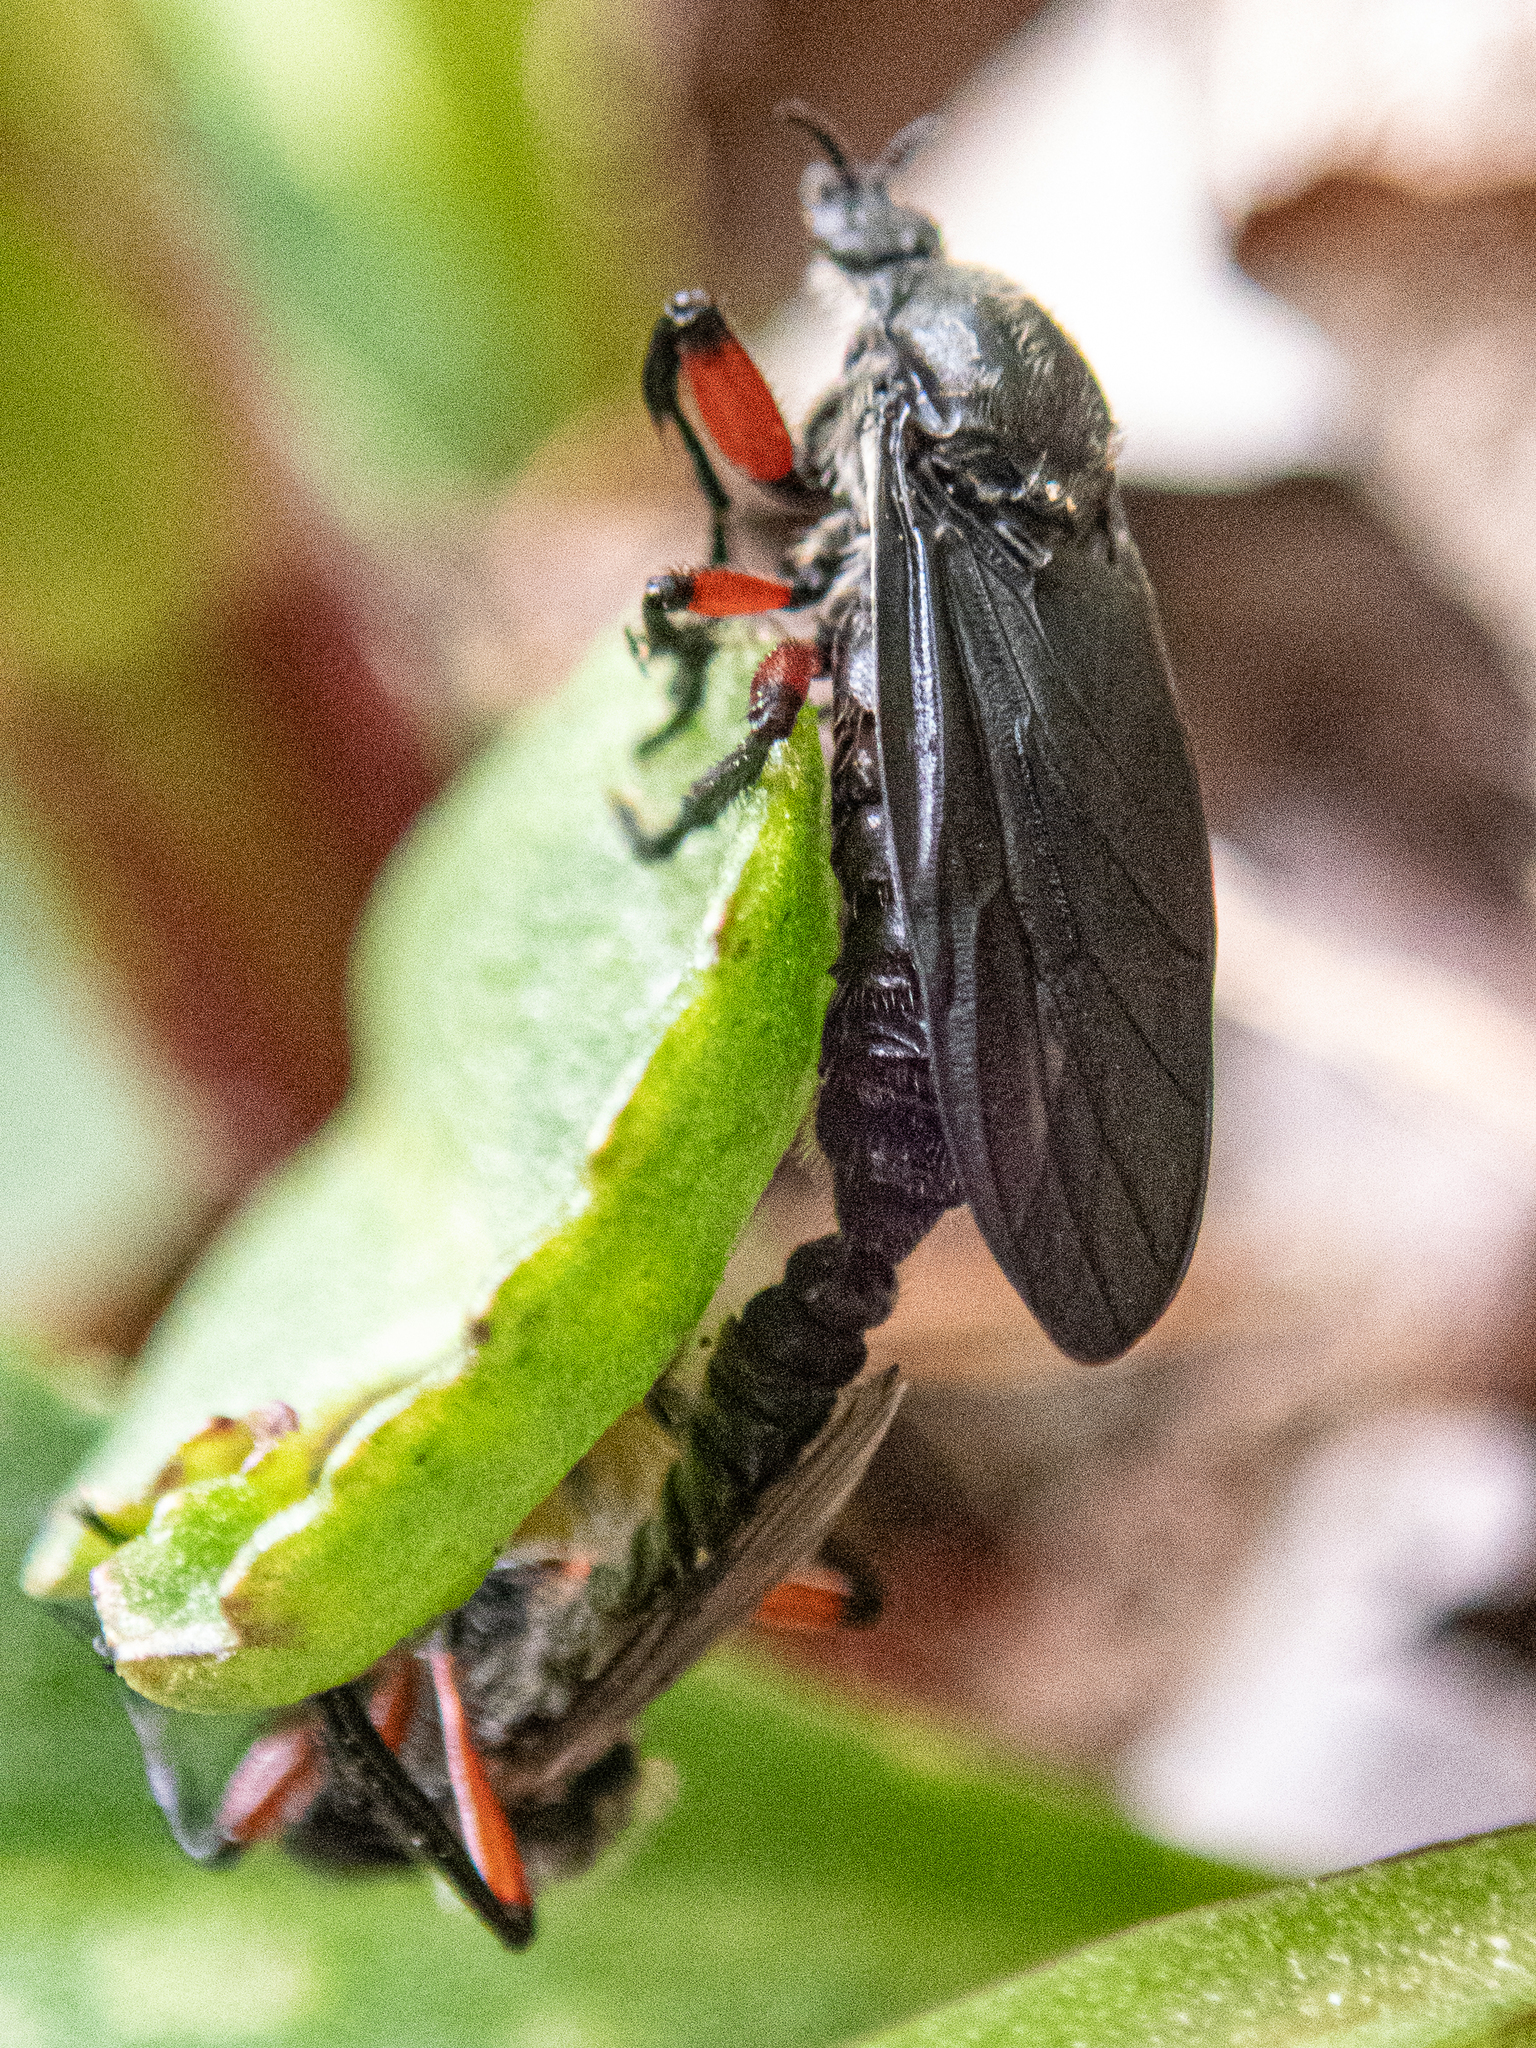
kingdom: Animalia
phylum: Arthropoda
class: Insecta
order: Diptera
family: Bibionidae
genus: Bibio
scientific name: Bibio femoratus
